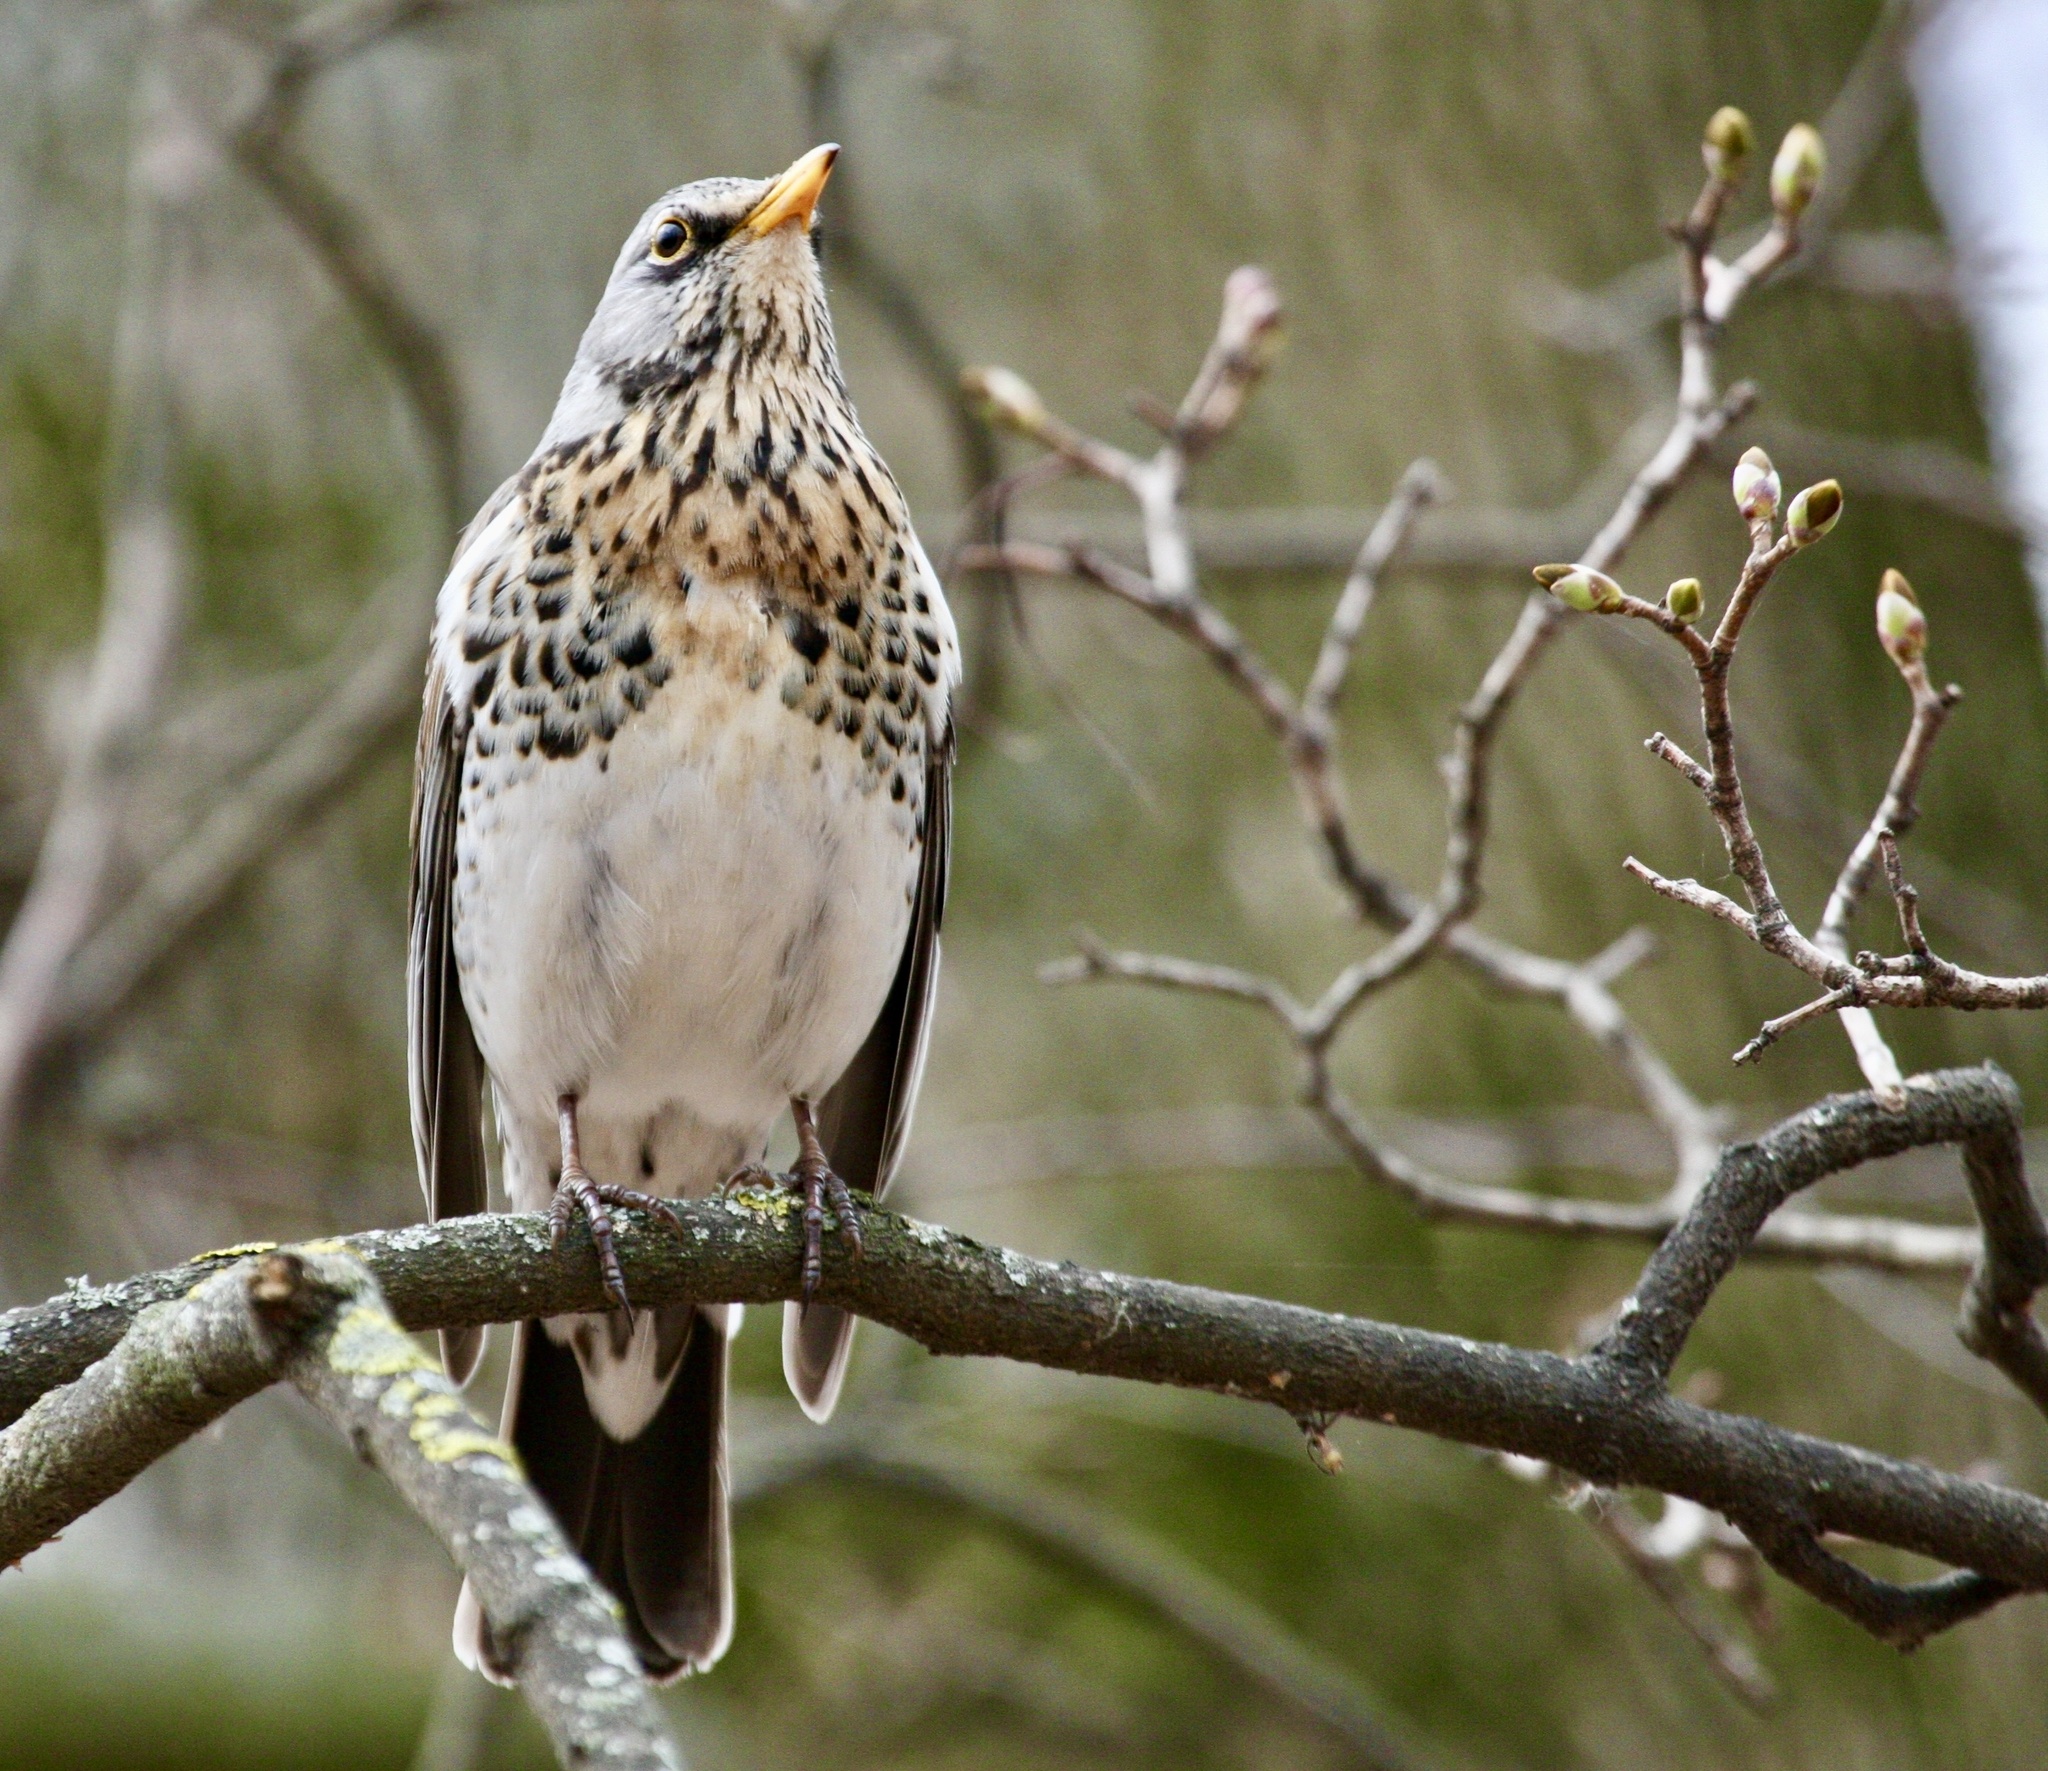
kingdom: Animalia
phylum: Chordata
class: Aves
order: Passeriformes
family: Turdidae
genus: Turdus
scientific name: Turdus pilaris
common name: Fieldfare
